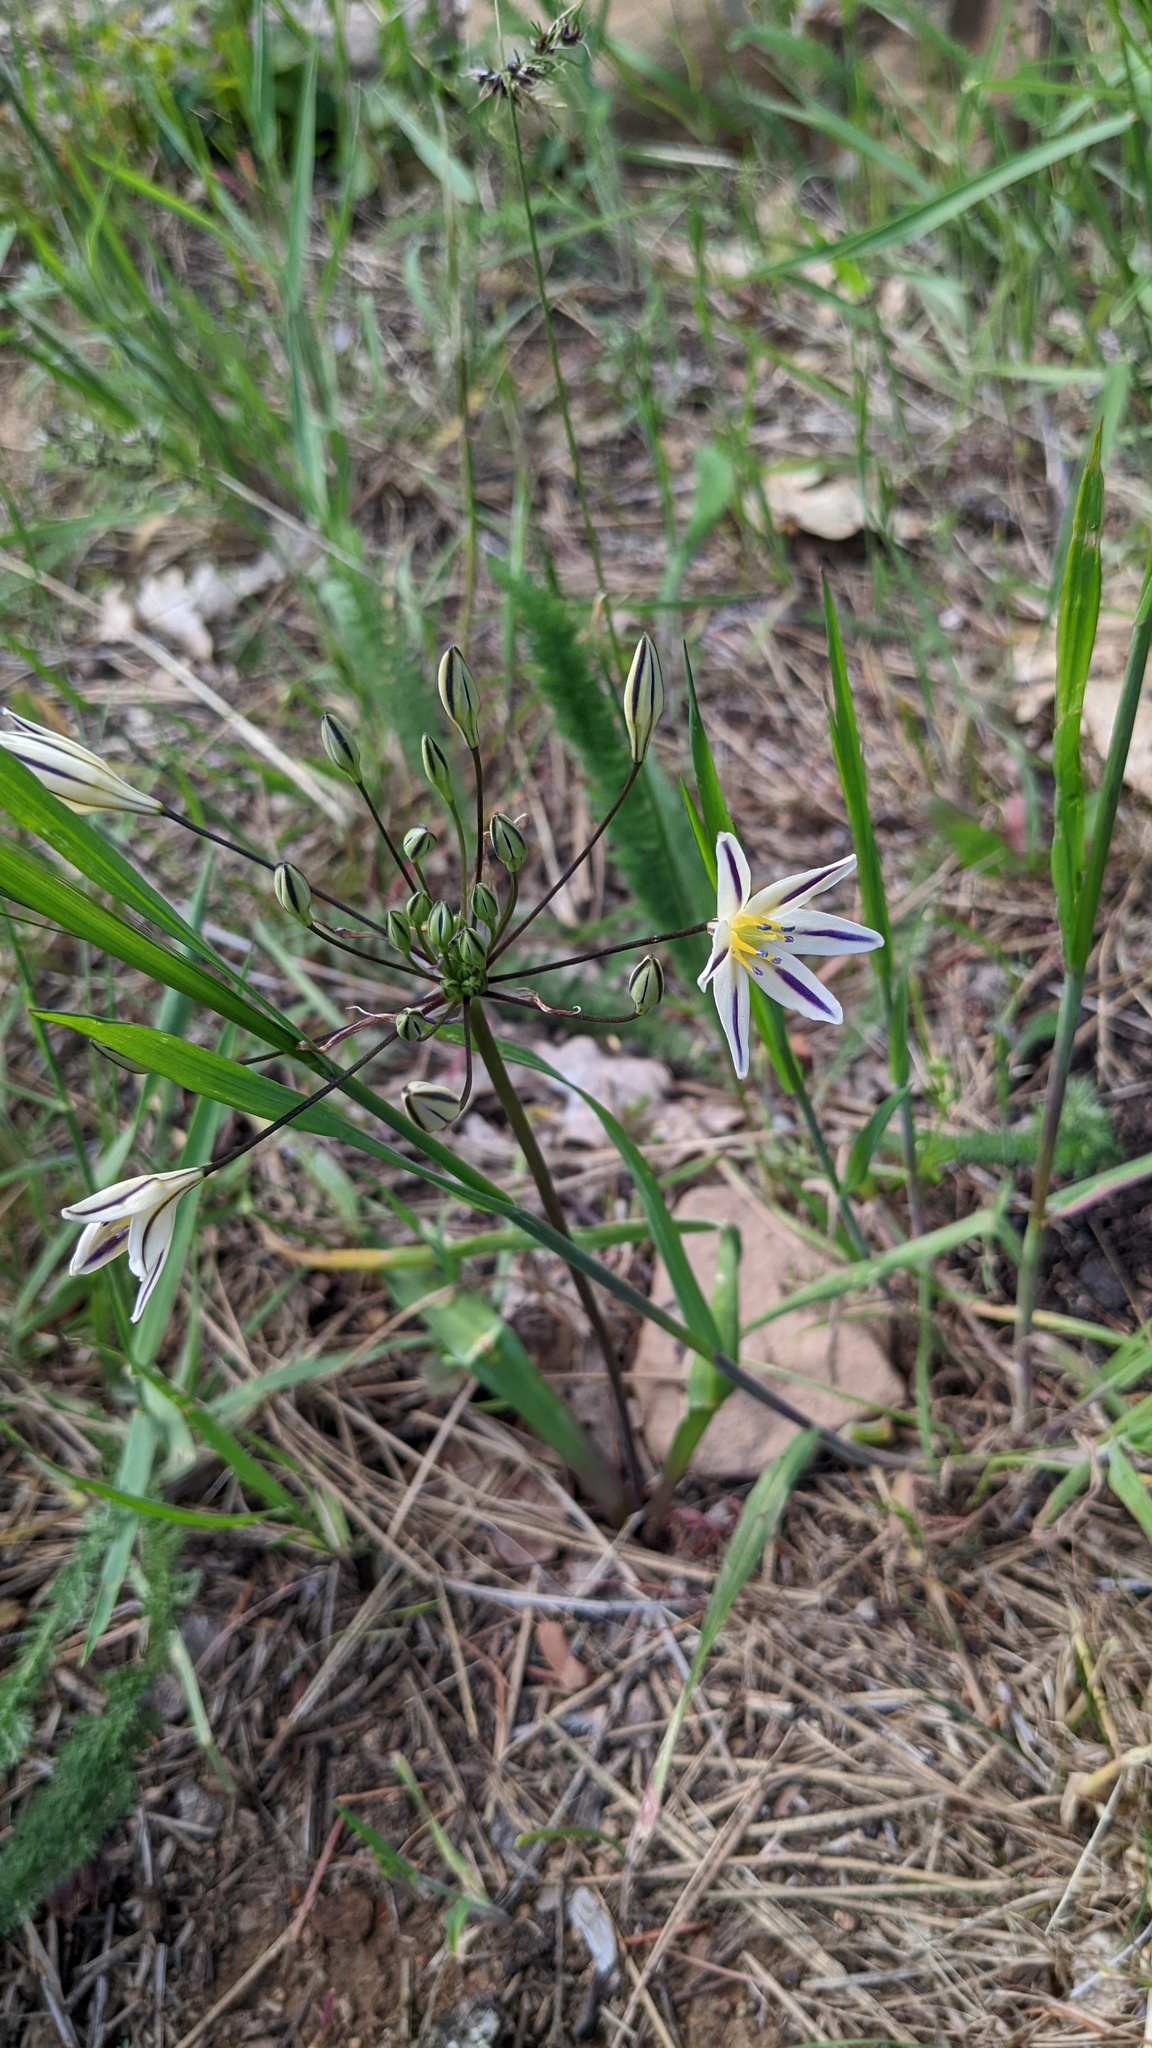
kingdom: Plantae
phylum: Tracheophyta
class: Liliopsida
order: Asparagales
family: Asparagaceae
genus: Triteleia
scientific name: Triteleia hendersonii
